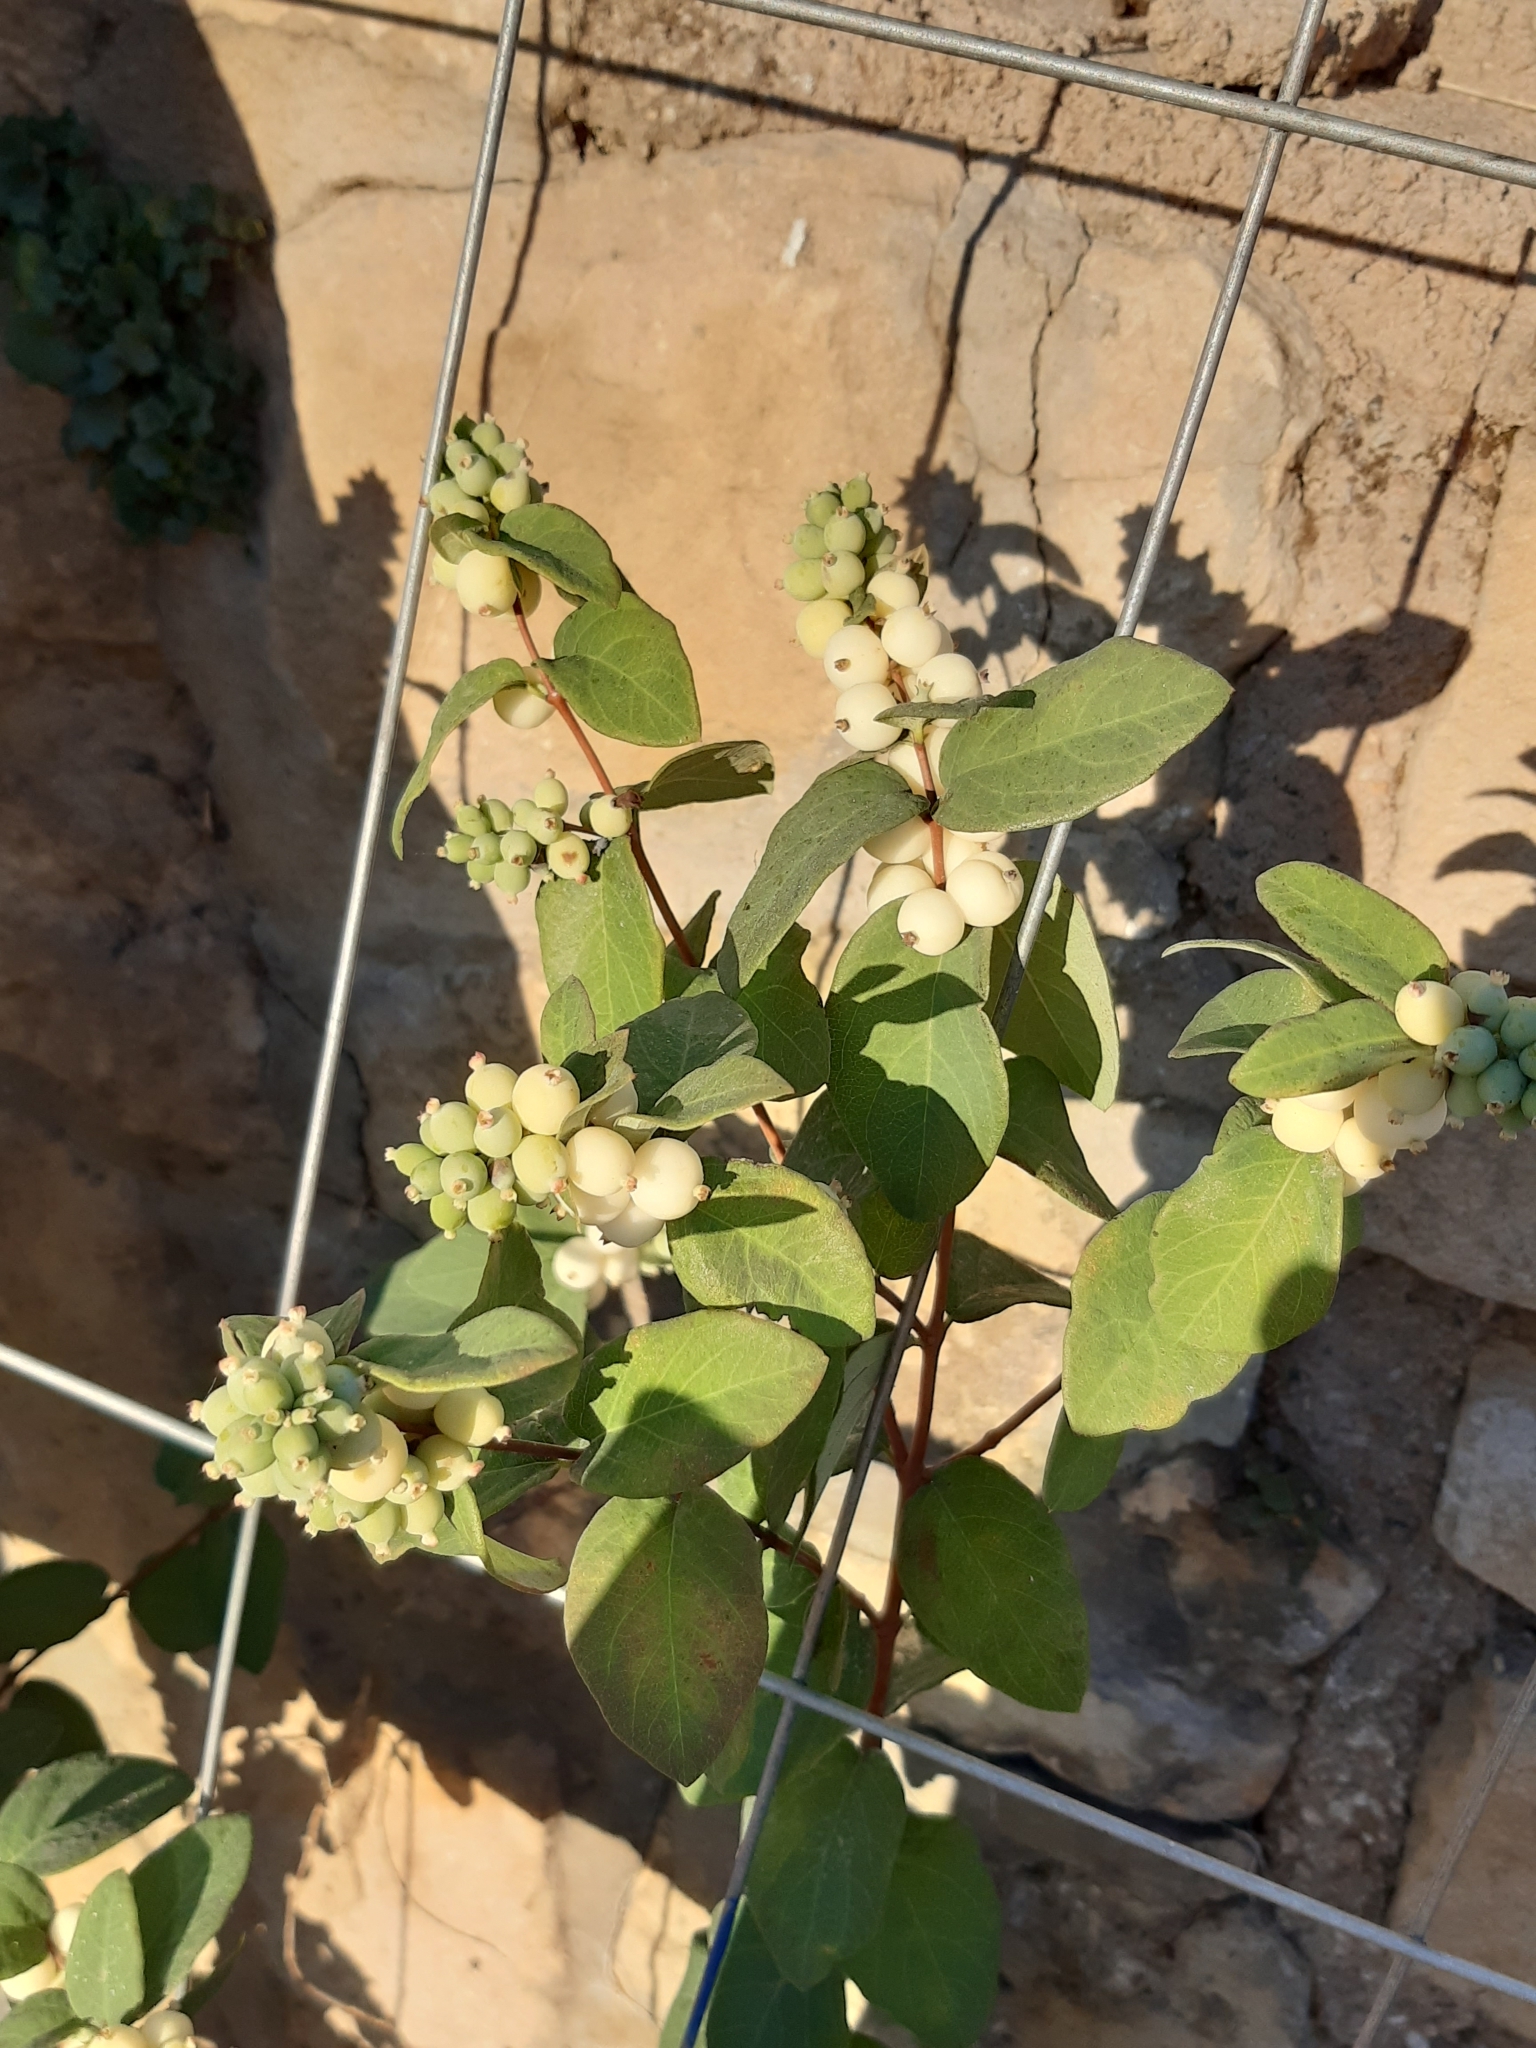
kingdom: Plantae
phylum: Tracheophyta
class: Magnoliopsida
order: Dipsacales
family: Caprifoliaceae
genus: Symphoricarpos
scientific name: Symphoricarpos albus
